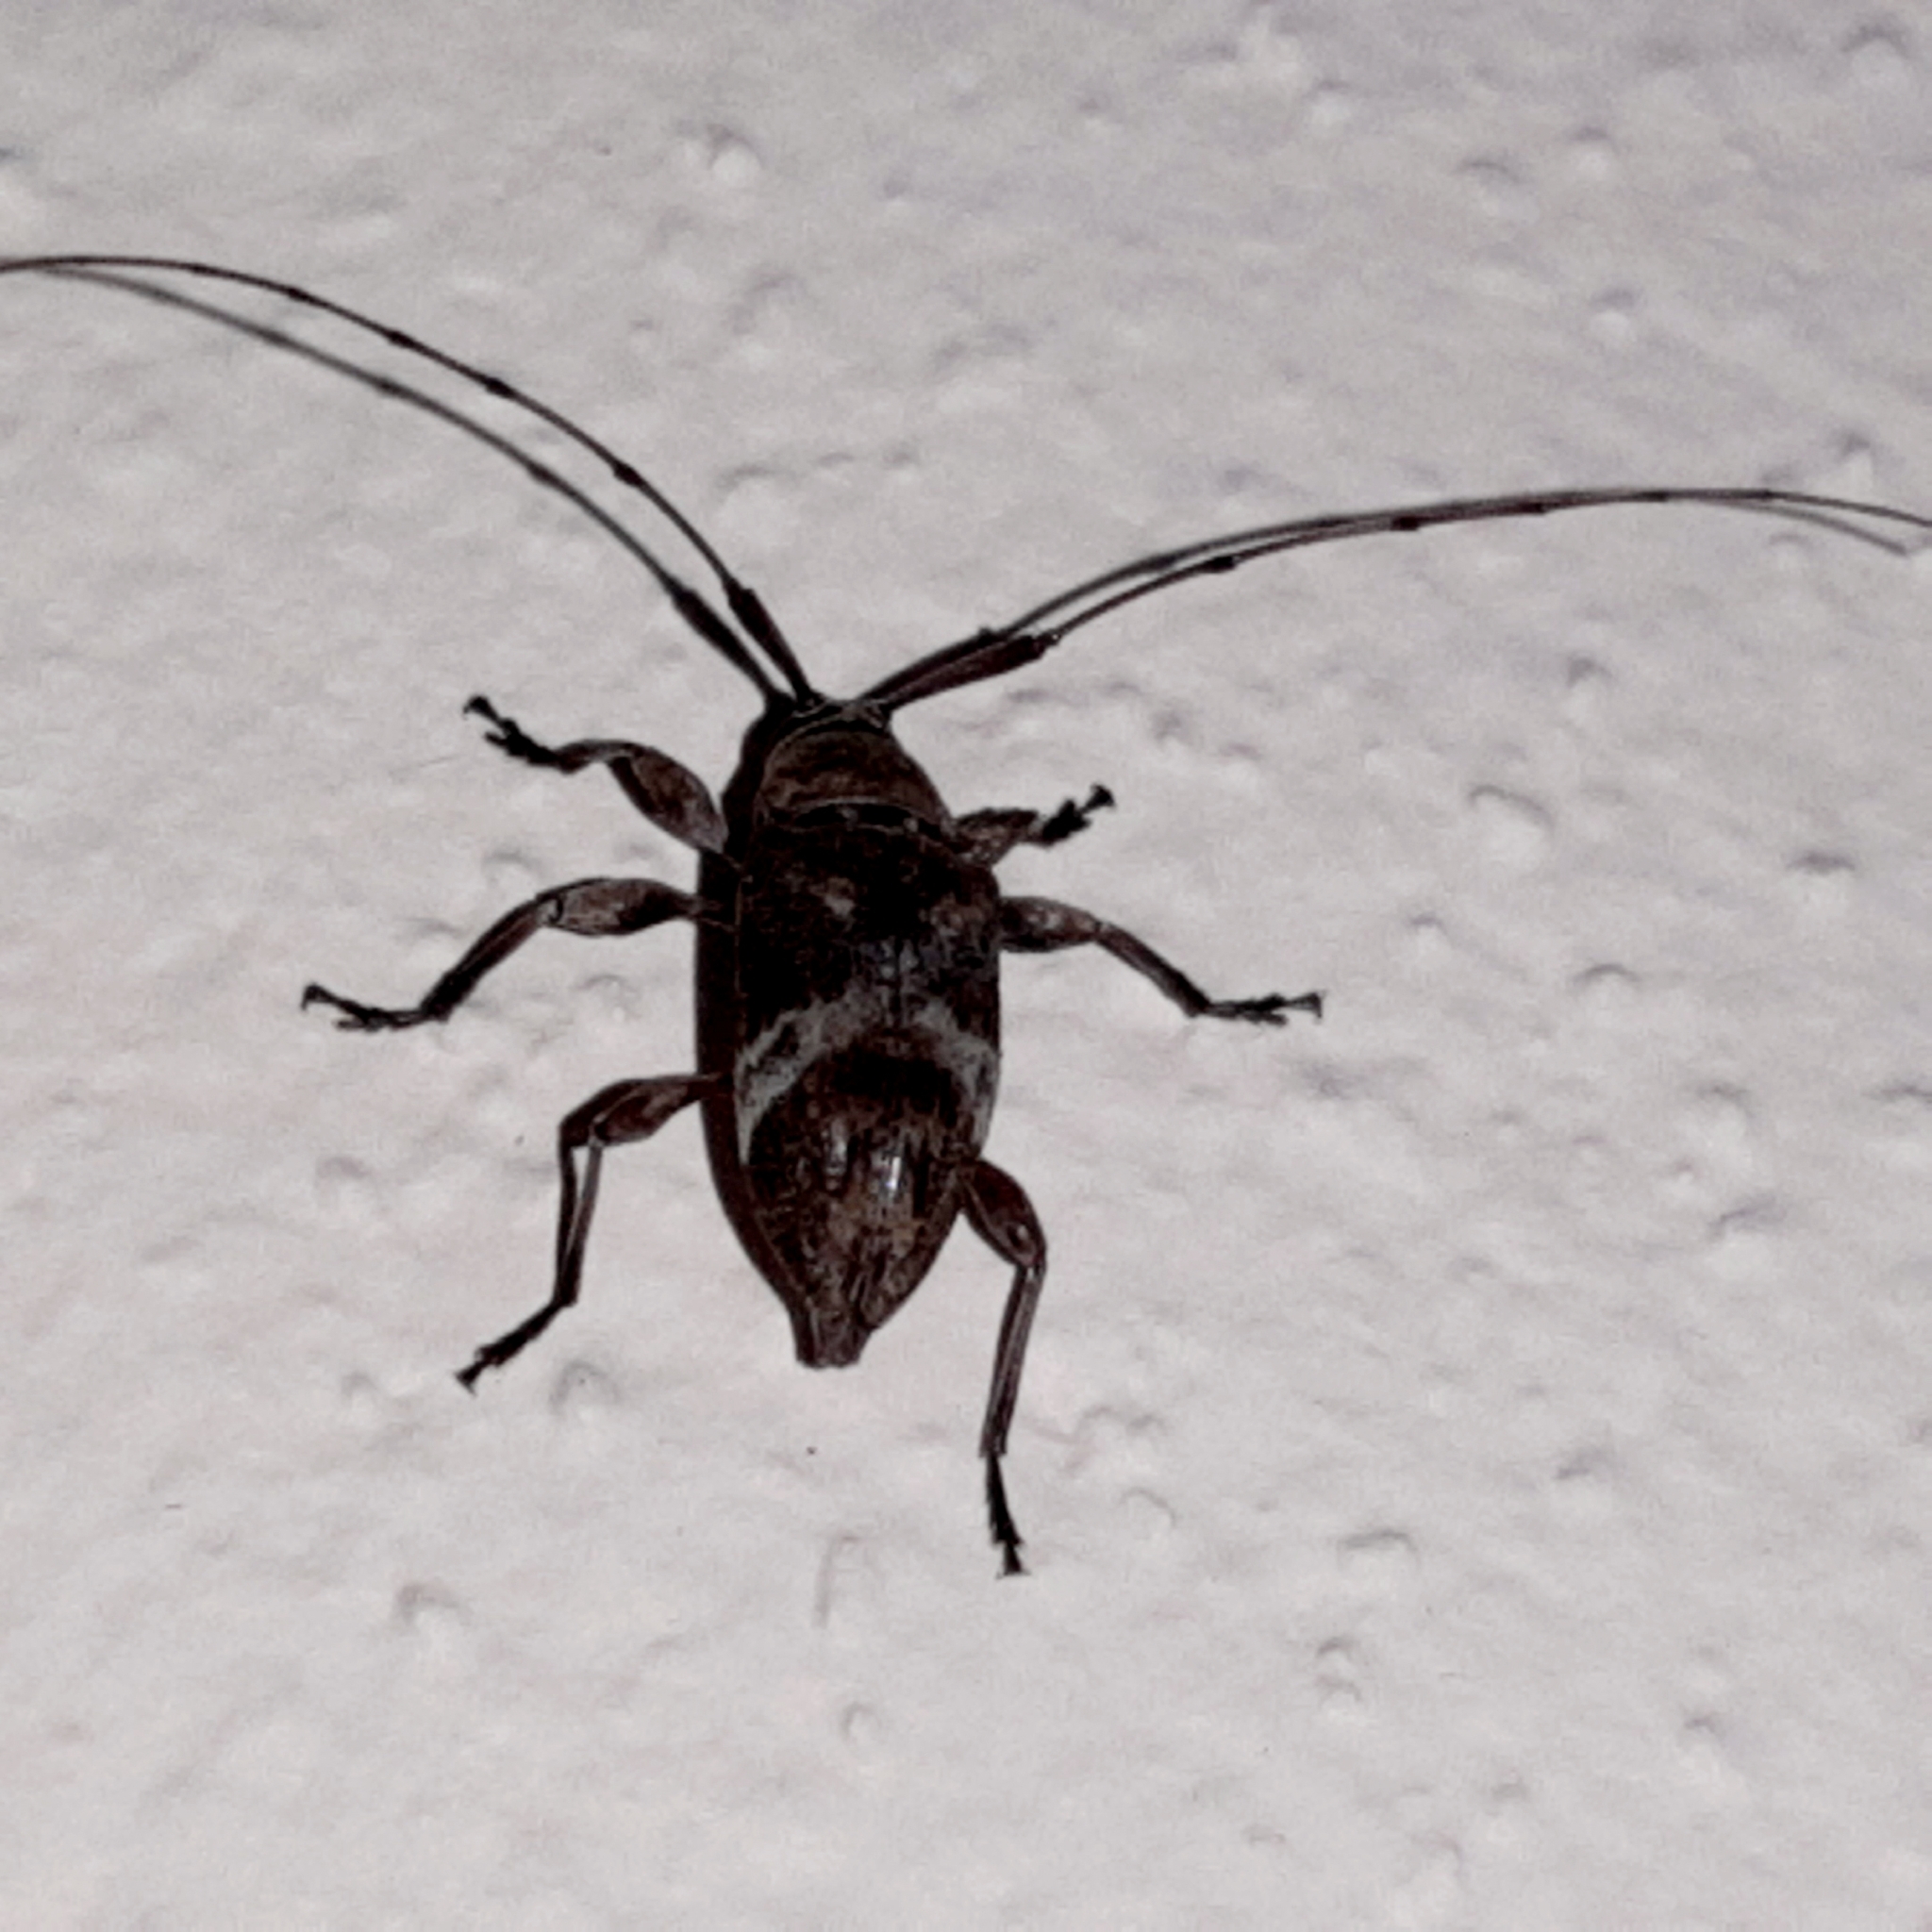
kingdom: Animalia
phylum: Arthropoda
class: Insecta
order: Coleoptera
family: Cerambycidae
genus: Atrypanius
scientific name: Atrypanius implexus
